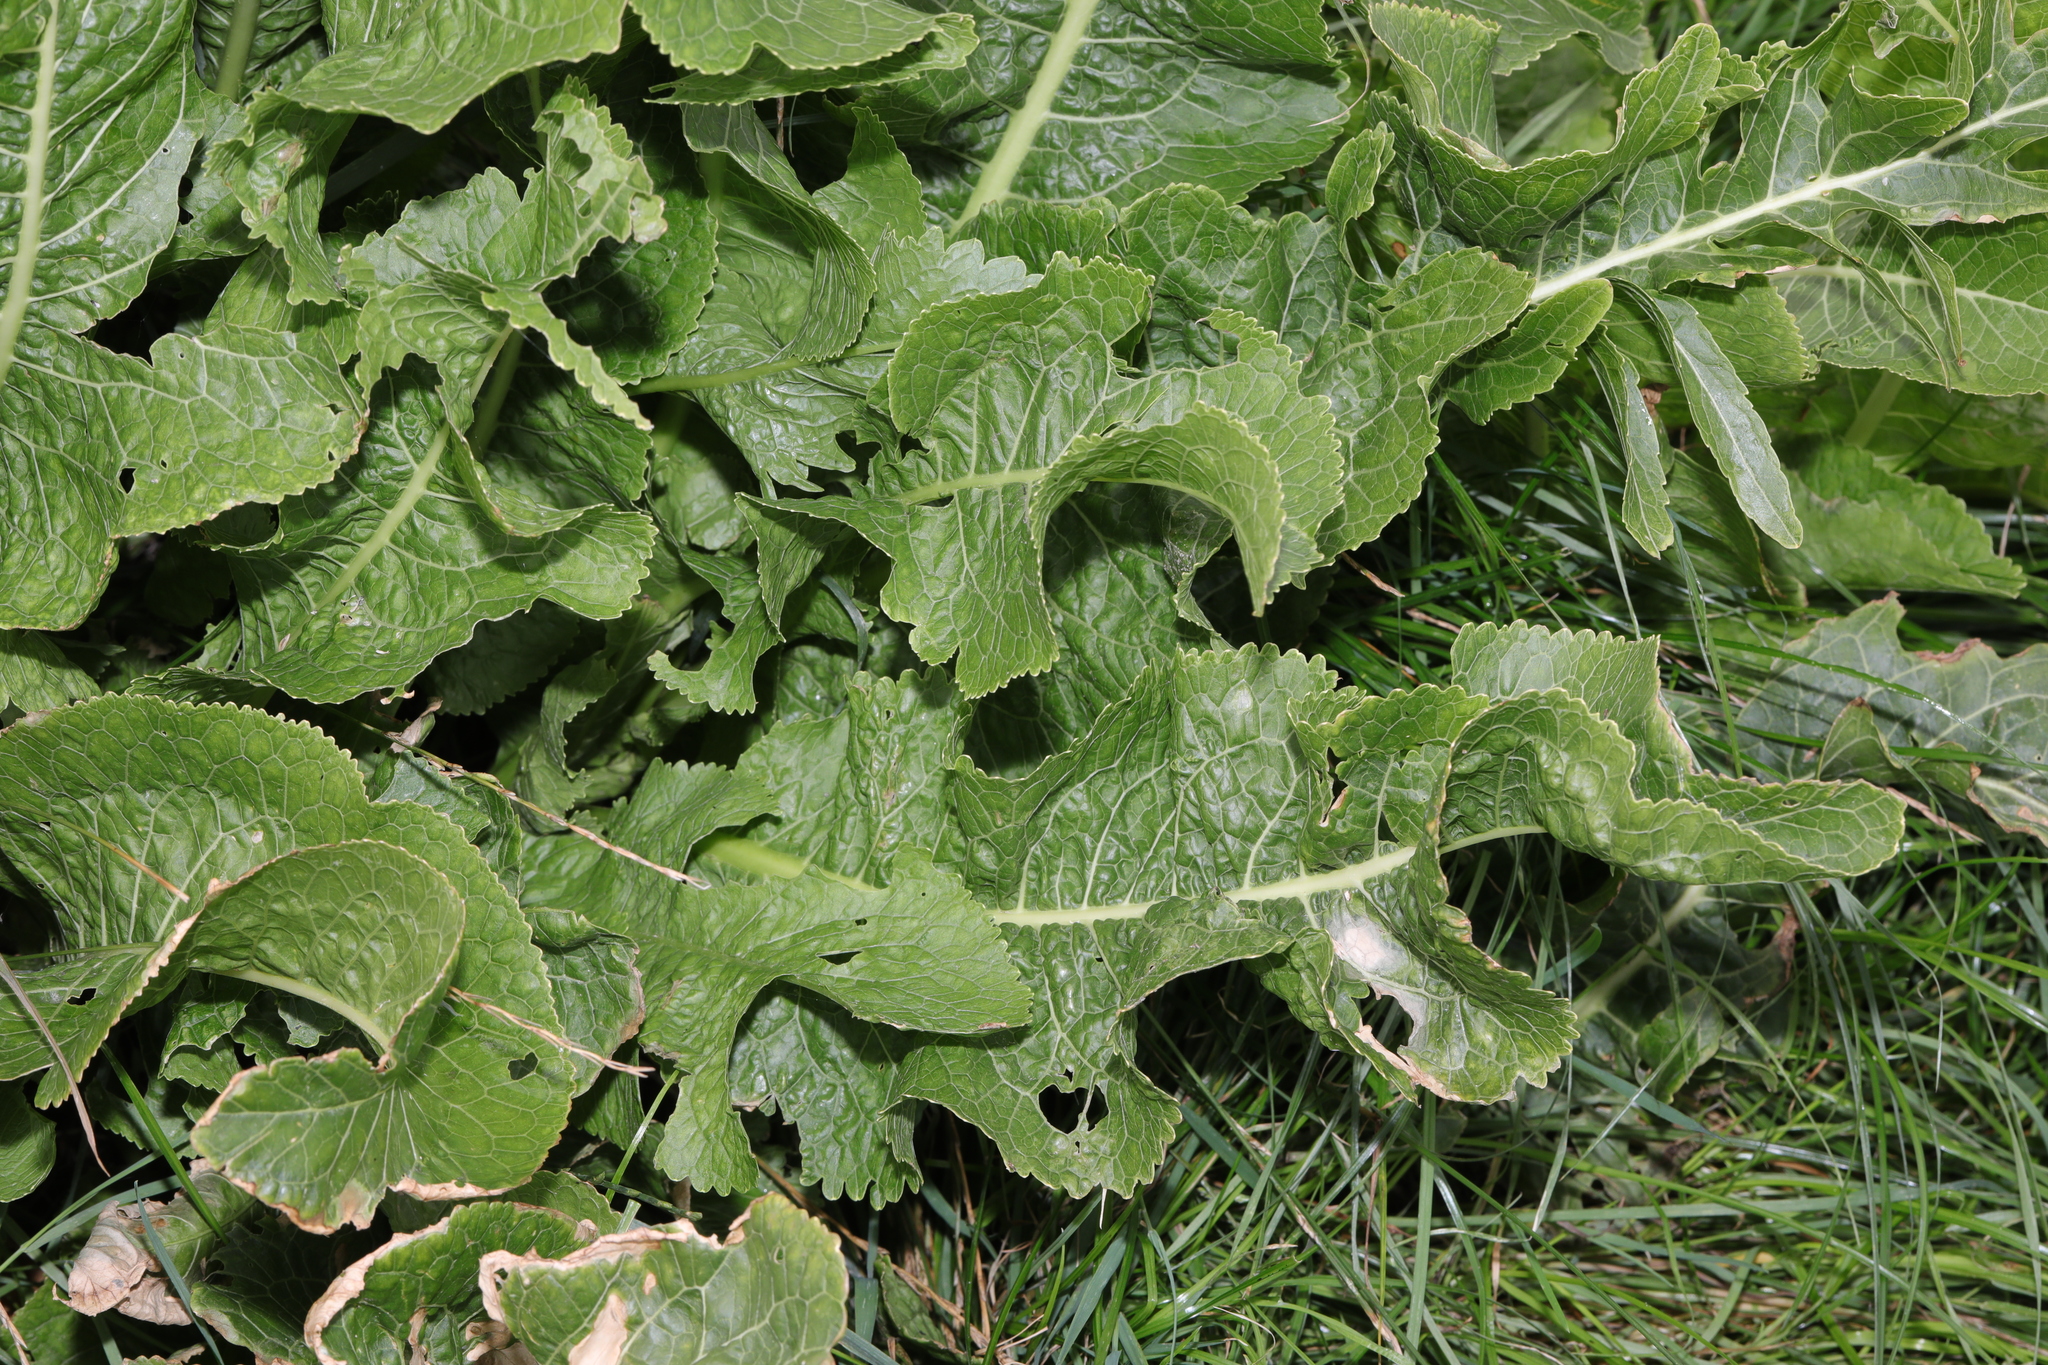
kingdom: Plantae
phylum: Tracheophyta
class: Magnoliopsida
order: Brassicales
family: Brassicaceae
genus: Armoracia
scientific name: Armoracia rusticana
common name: Horseradish
